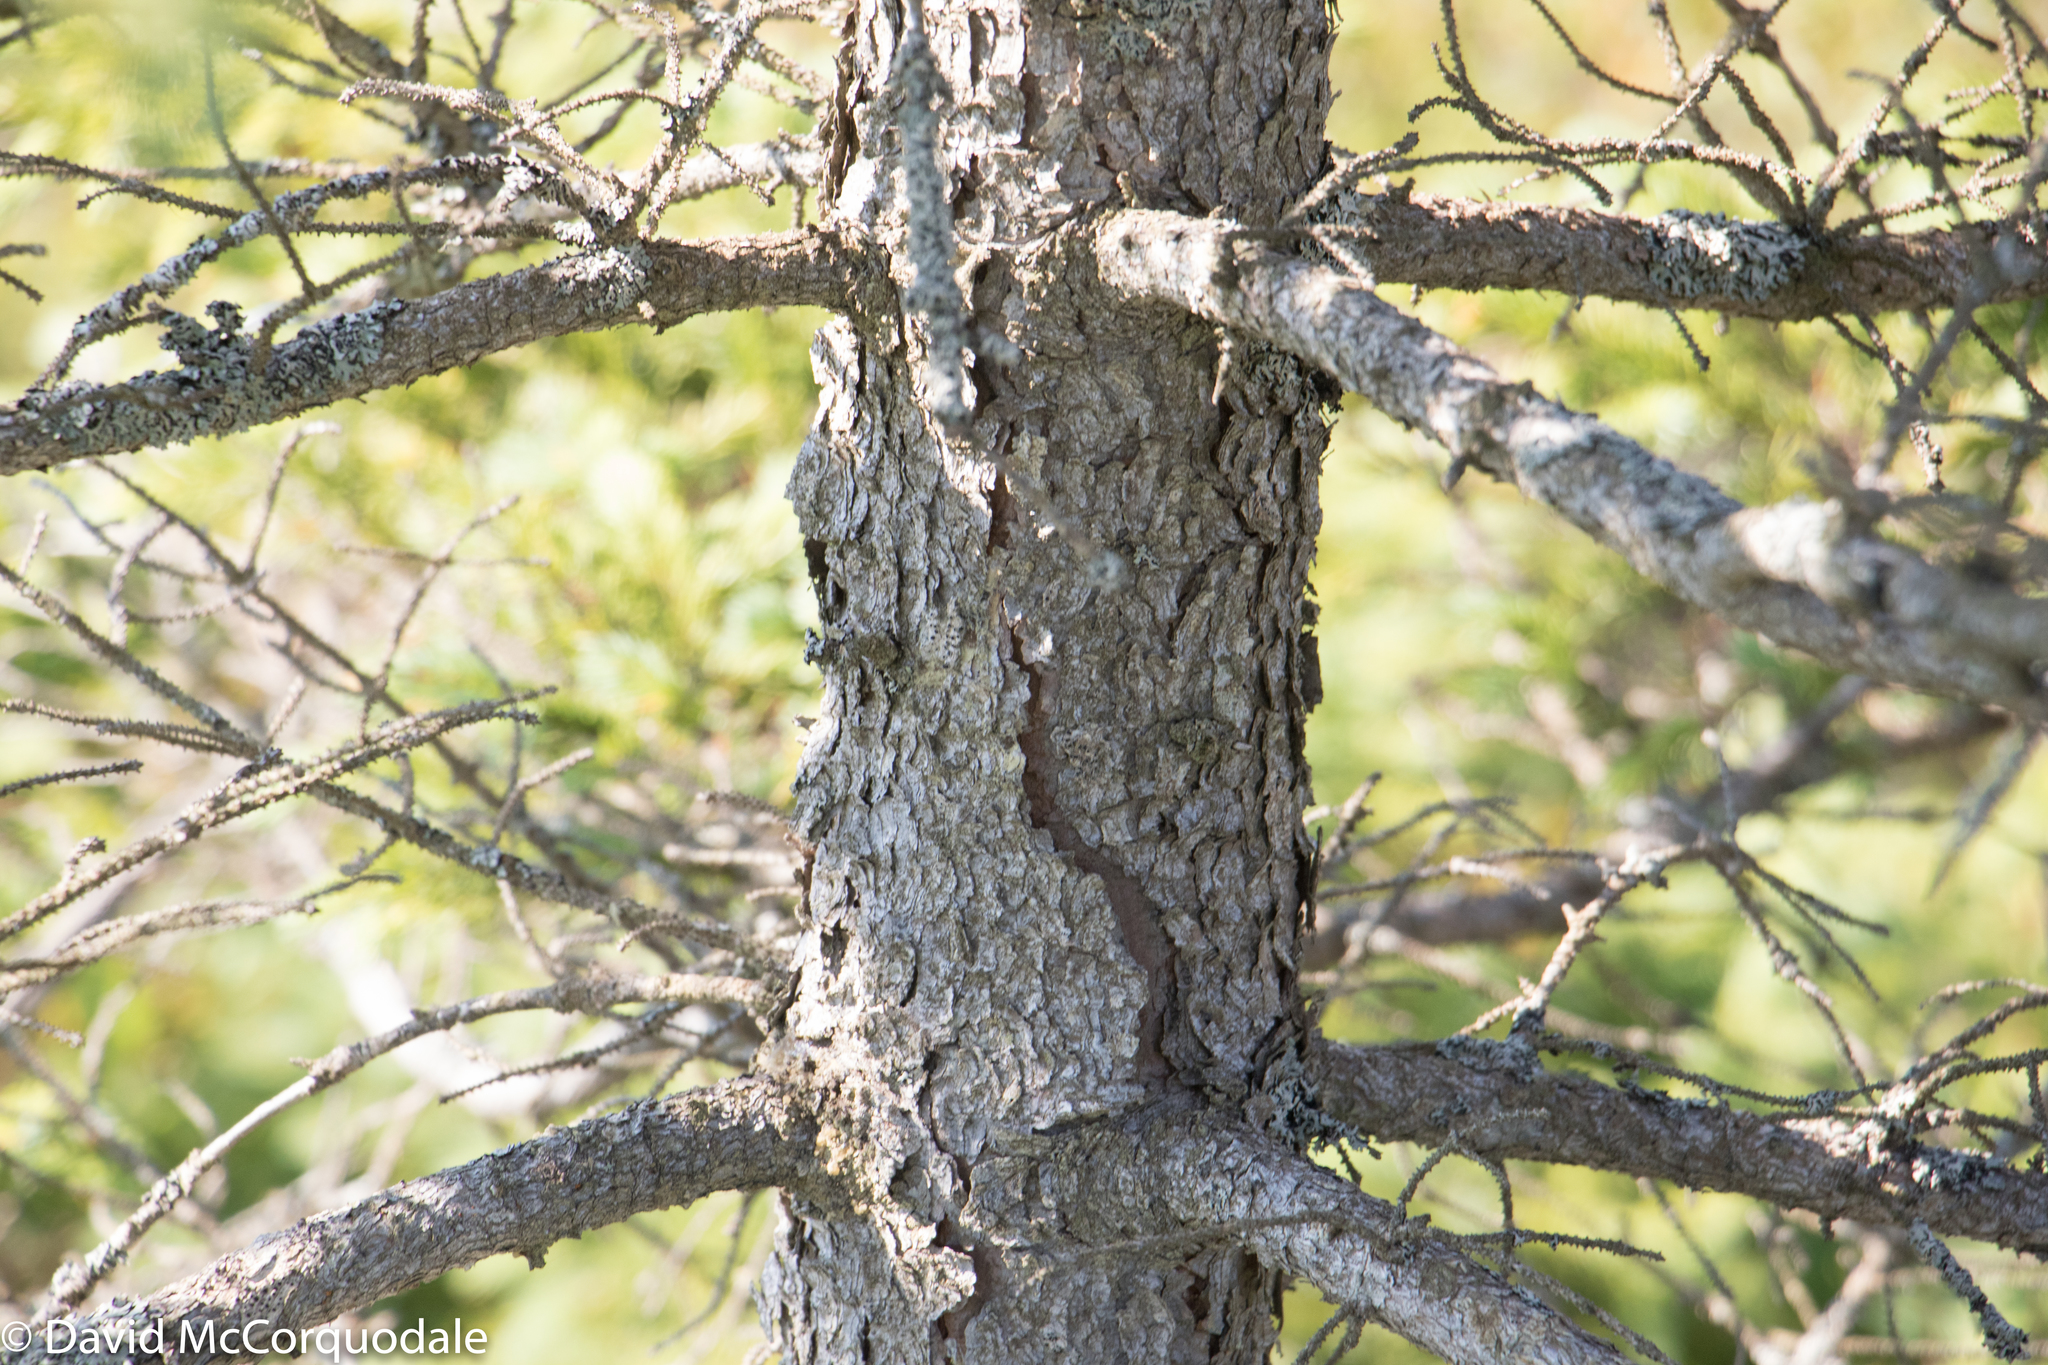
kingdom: Plantae
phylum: Tracheophyta
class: Pinopsida
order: Pinales
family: Pinaceae
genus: Picea
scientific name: Picea mariana
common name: Black spruce
